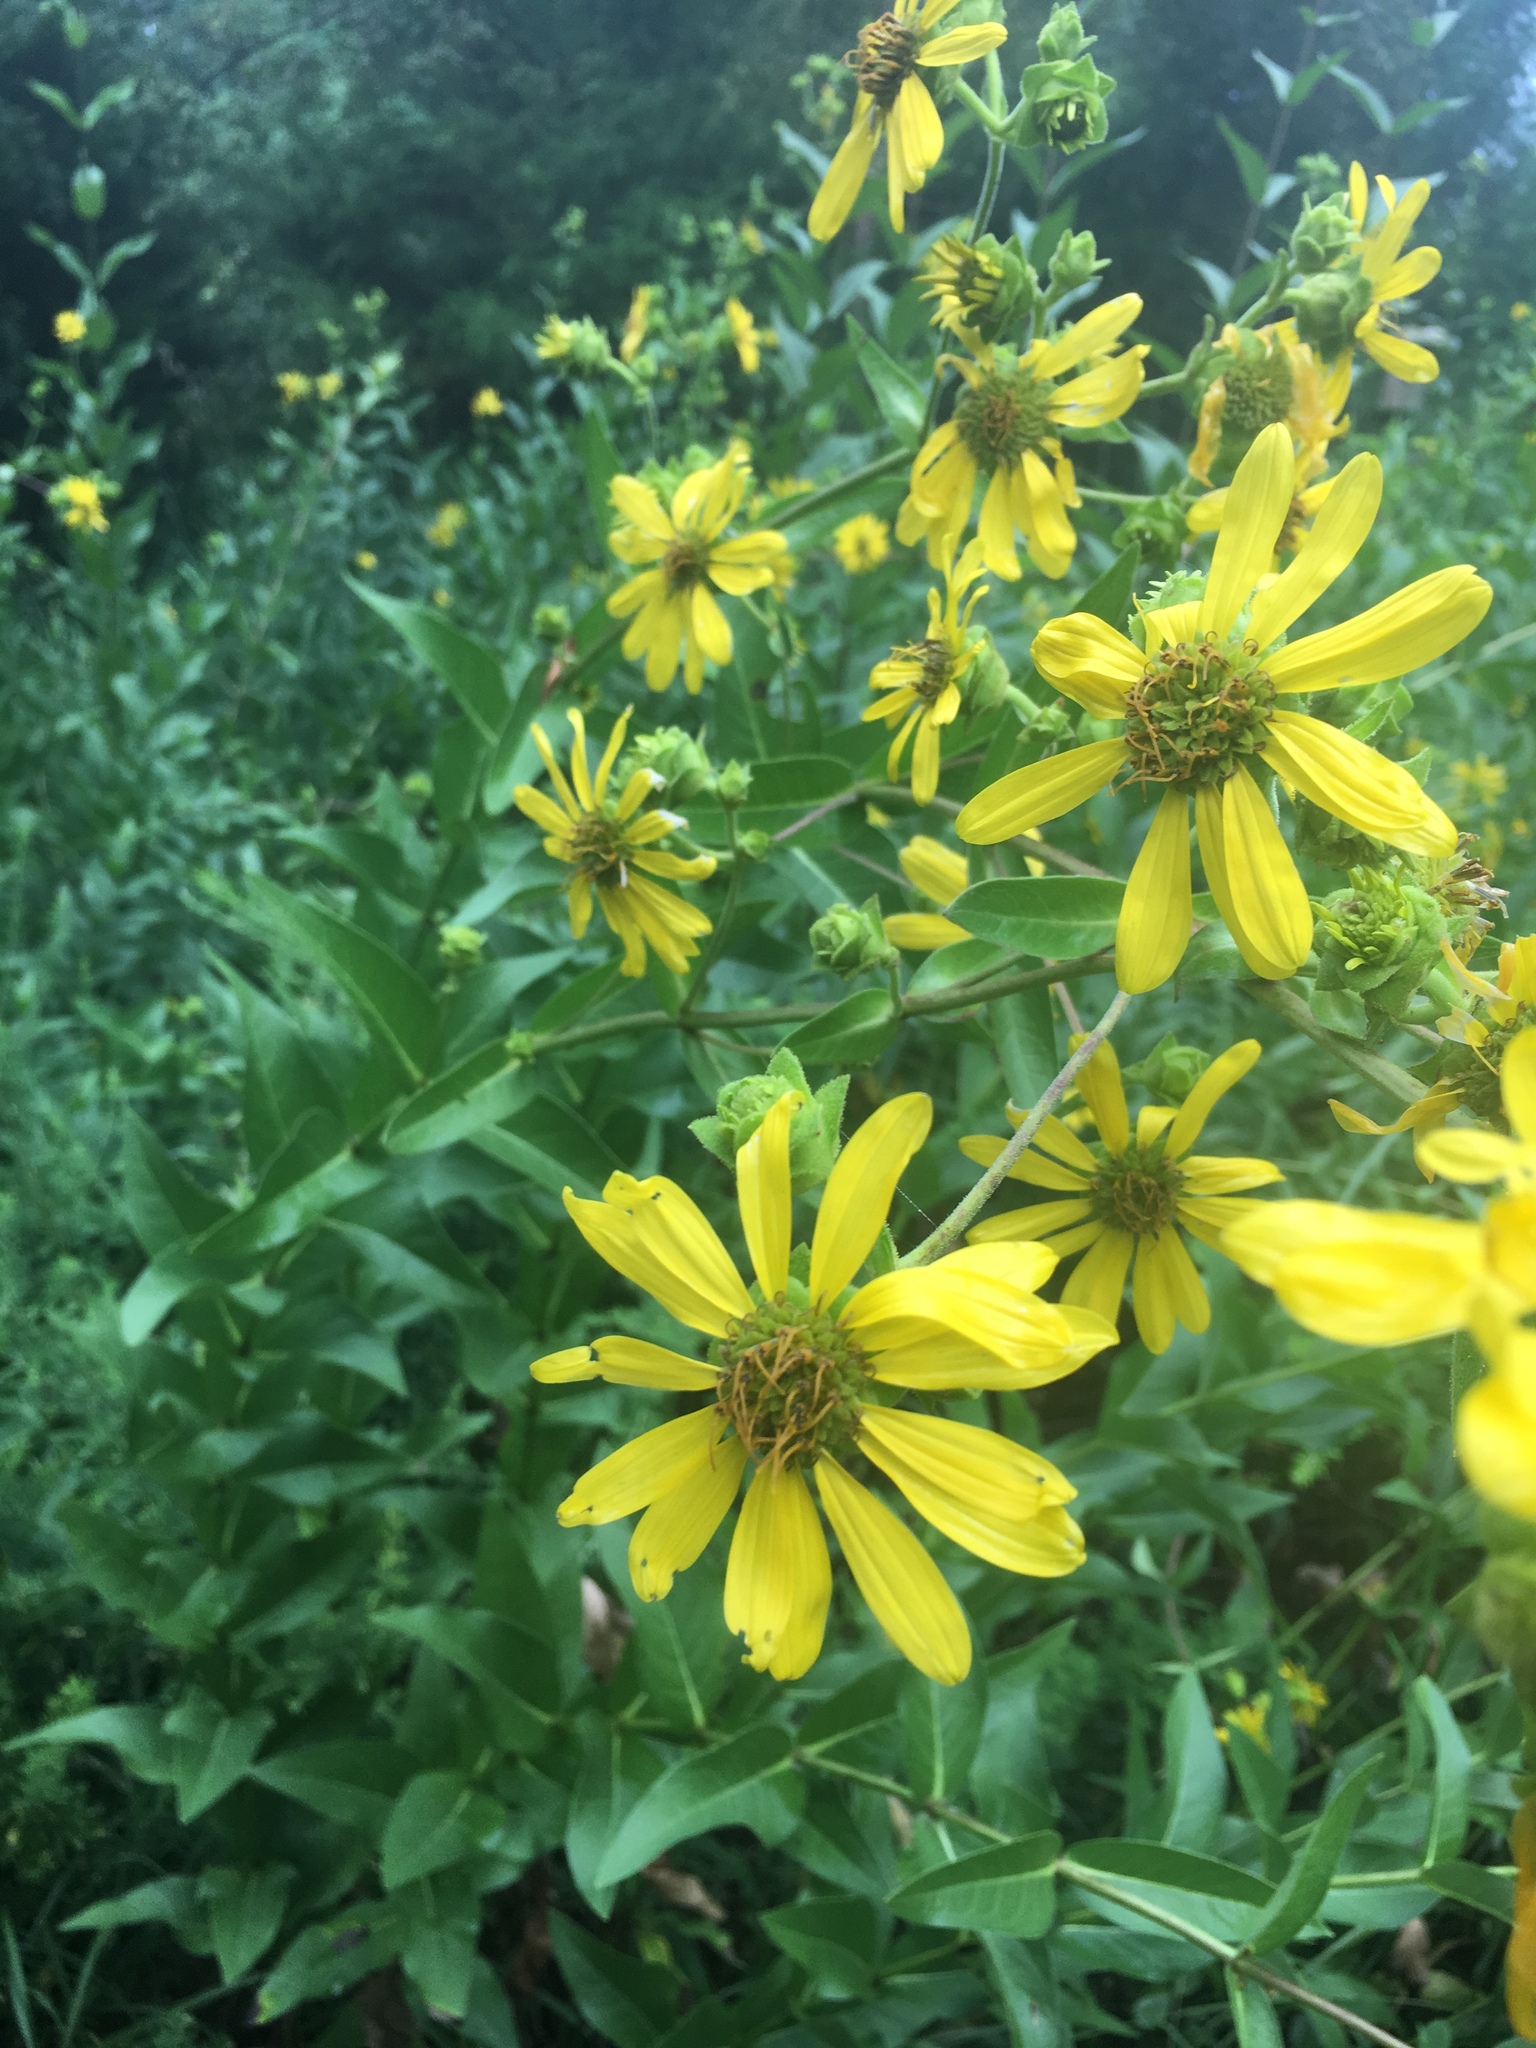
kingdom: Plantae
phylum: Tracheophyta
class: Magnoliopsida
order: Asterales
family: Asteraceae
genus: Silphium
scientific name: Silphium integrifolium
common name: Whole-leaf rosinweed
